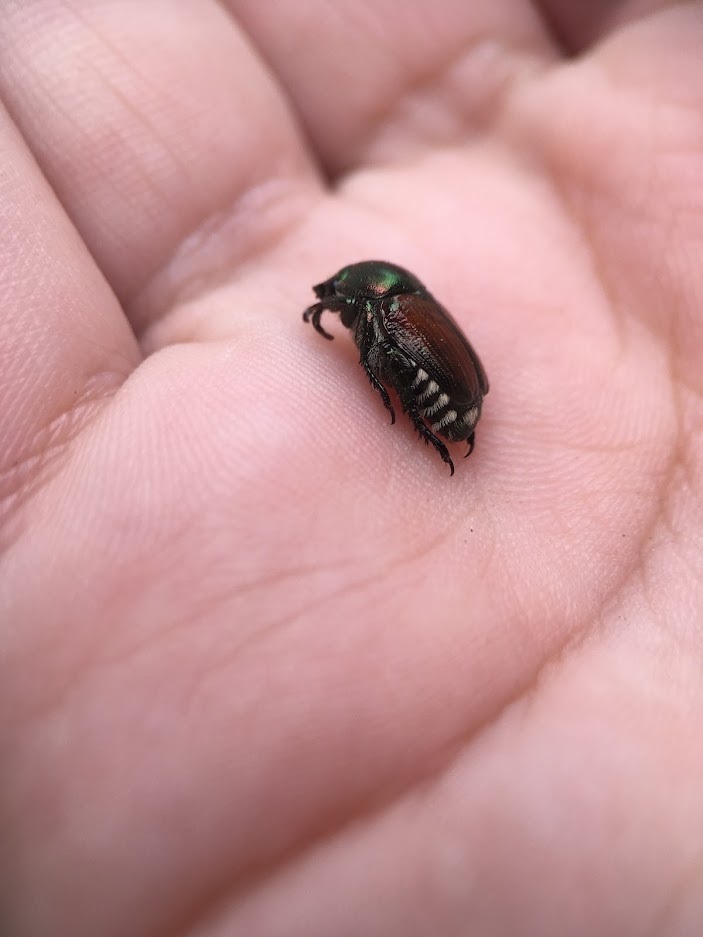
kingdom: Animalia
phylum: Arthropoda
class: Insecta
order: Coleoptera
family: Scarabaeidae
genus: Popillia
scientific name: Popillia japonica
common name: Japanese beetle
